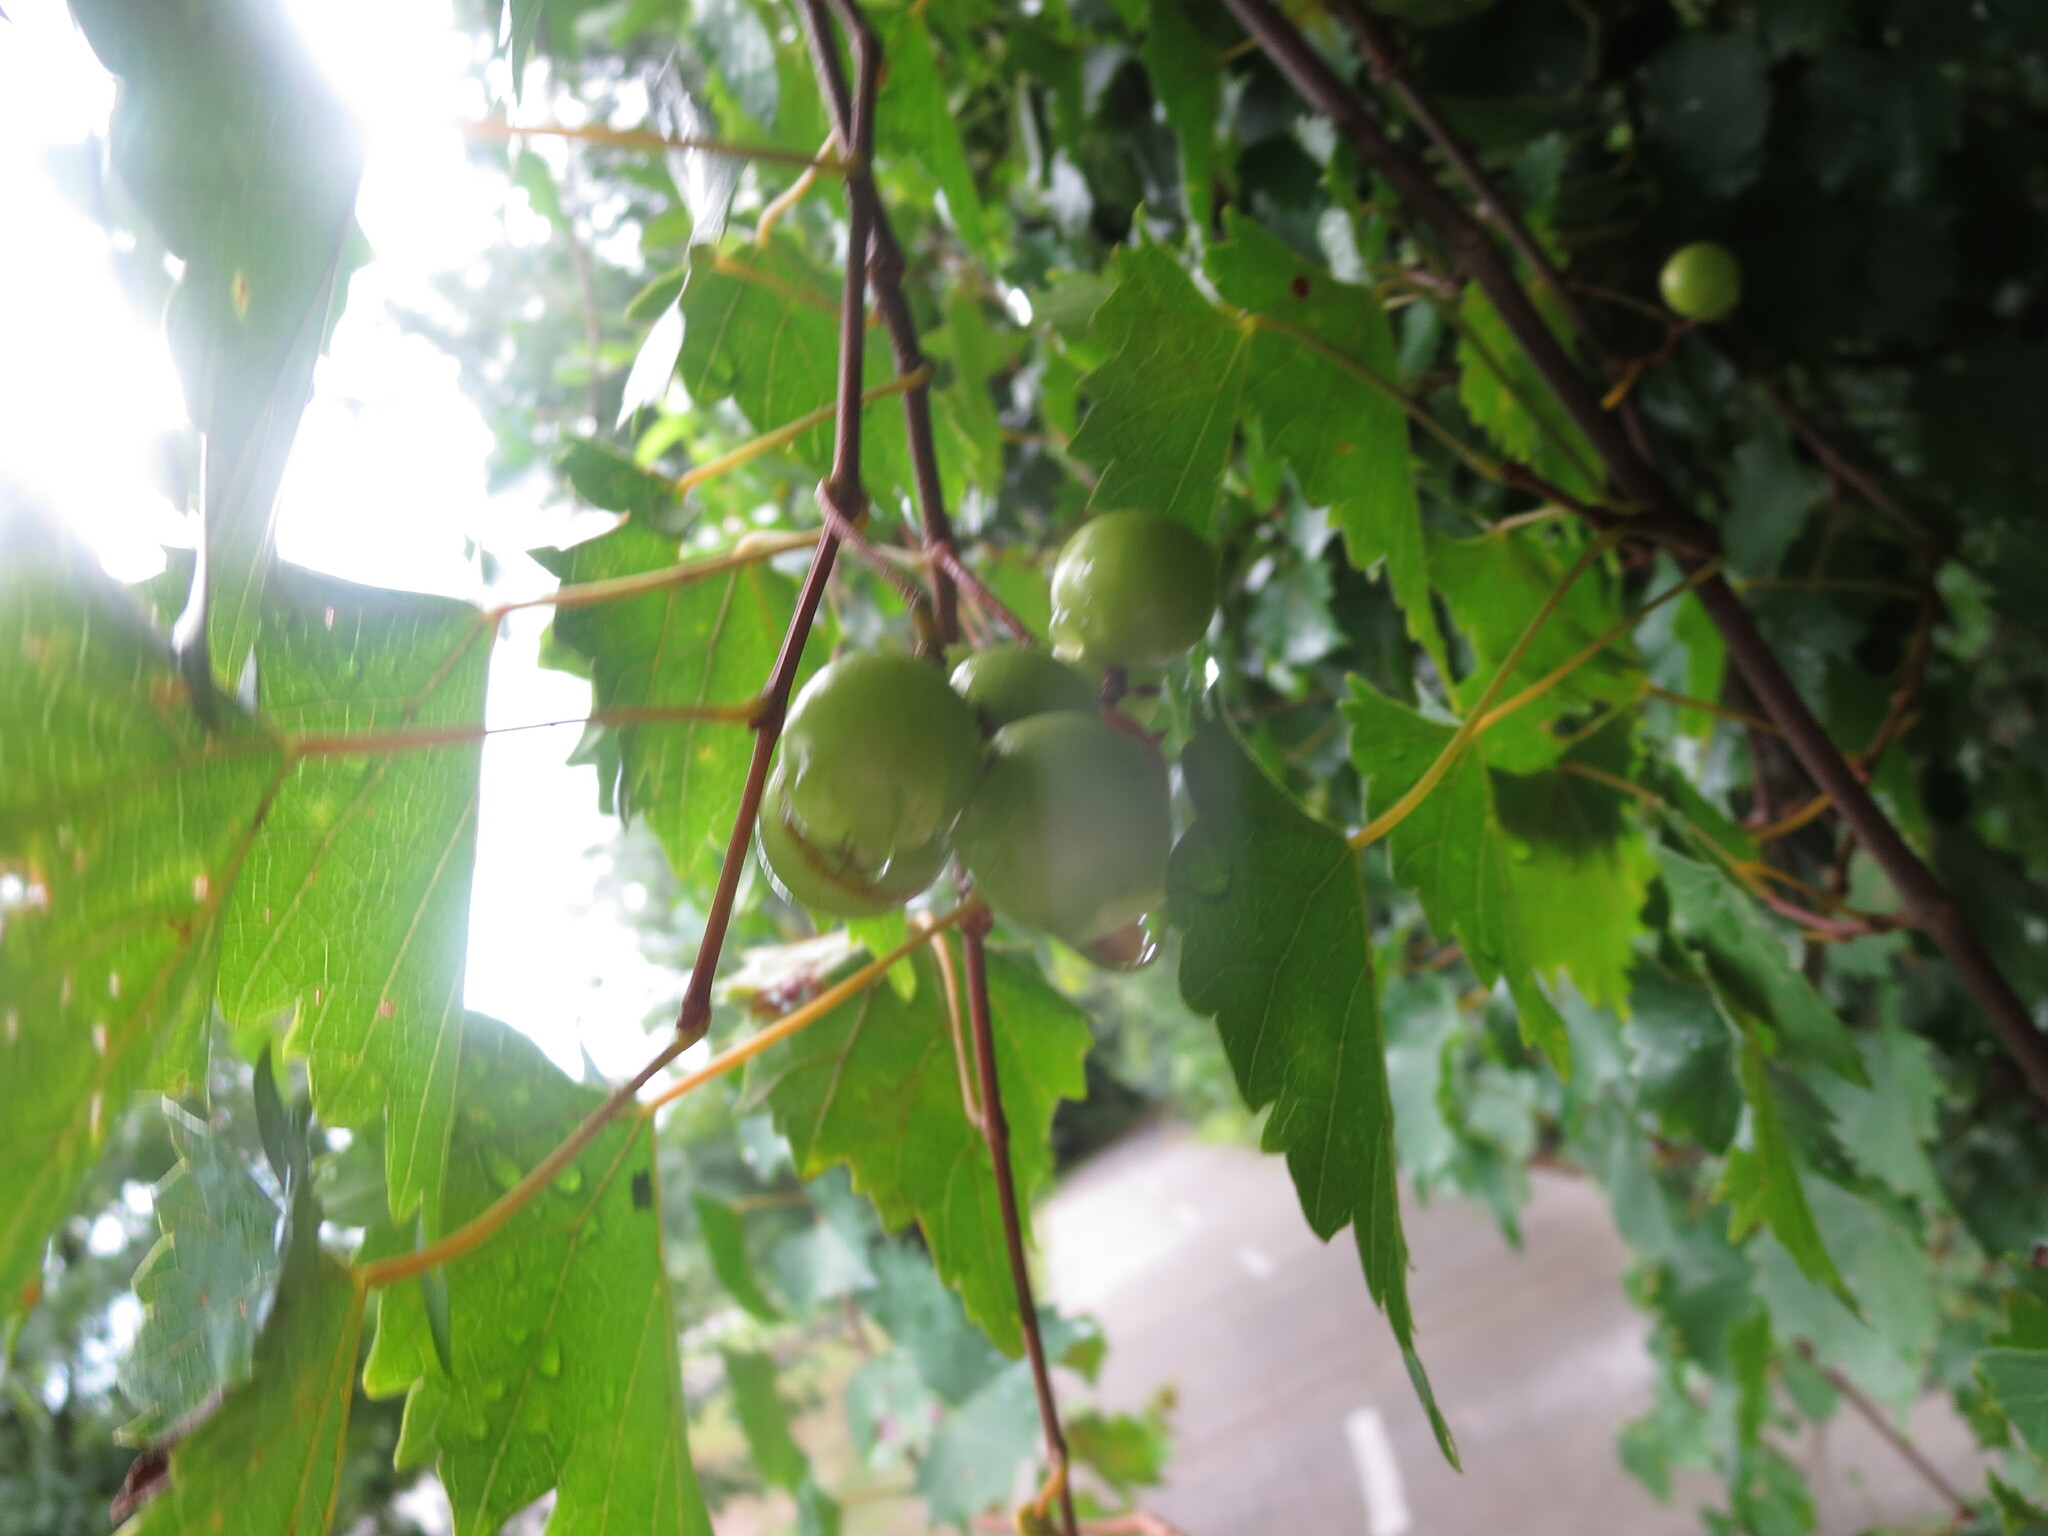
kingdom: Plantae
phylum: Tracheophyta
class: Magnoliopsida
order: Vitales
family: Vitaceae
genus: Vitis
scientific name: Vitis rotundifolia
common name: Muscadine grape
